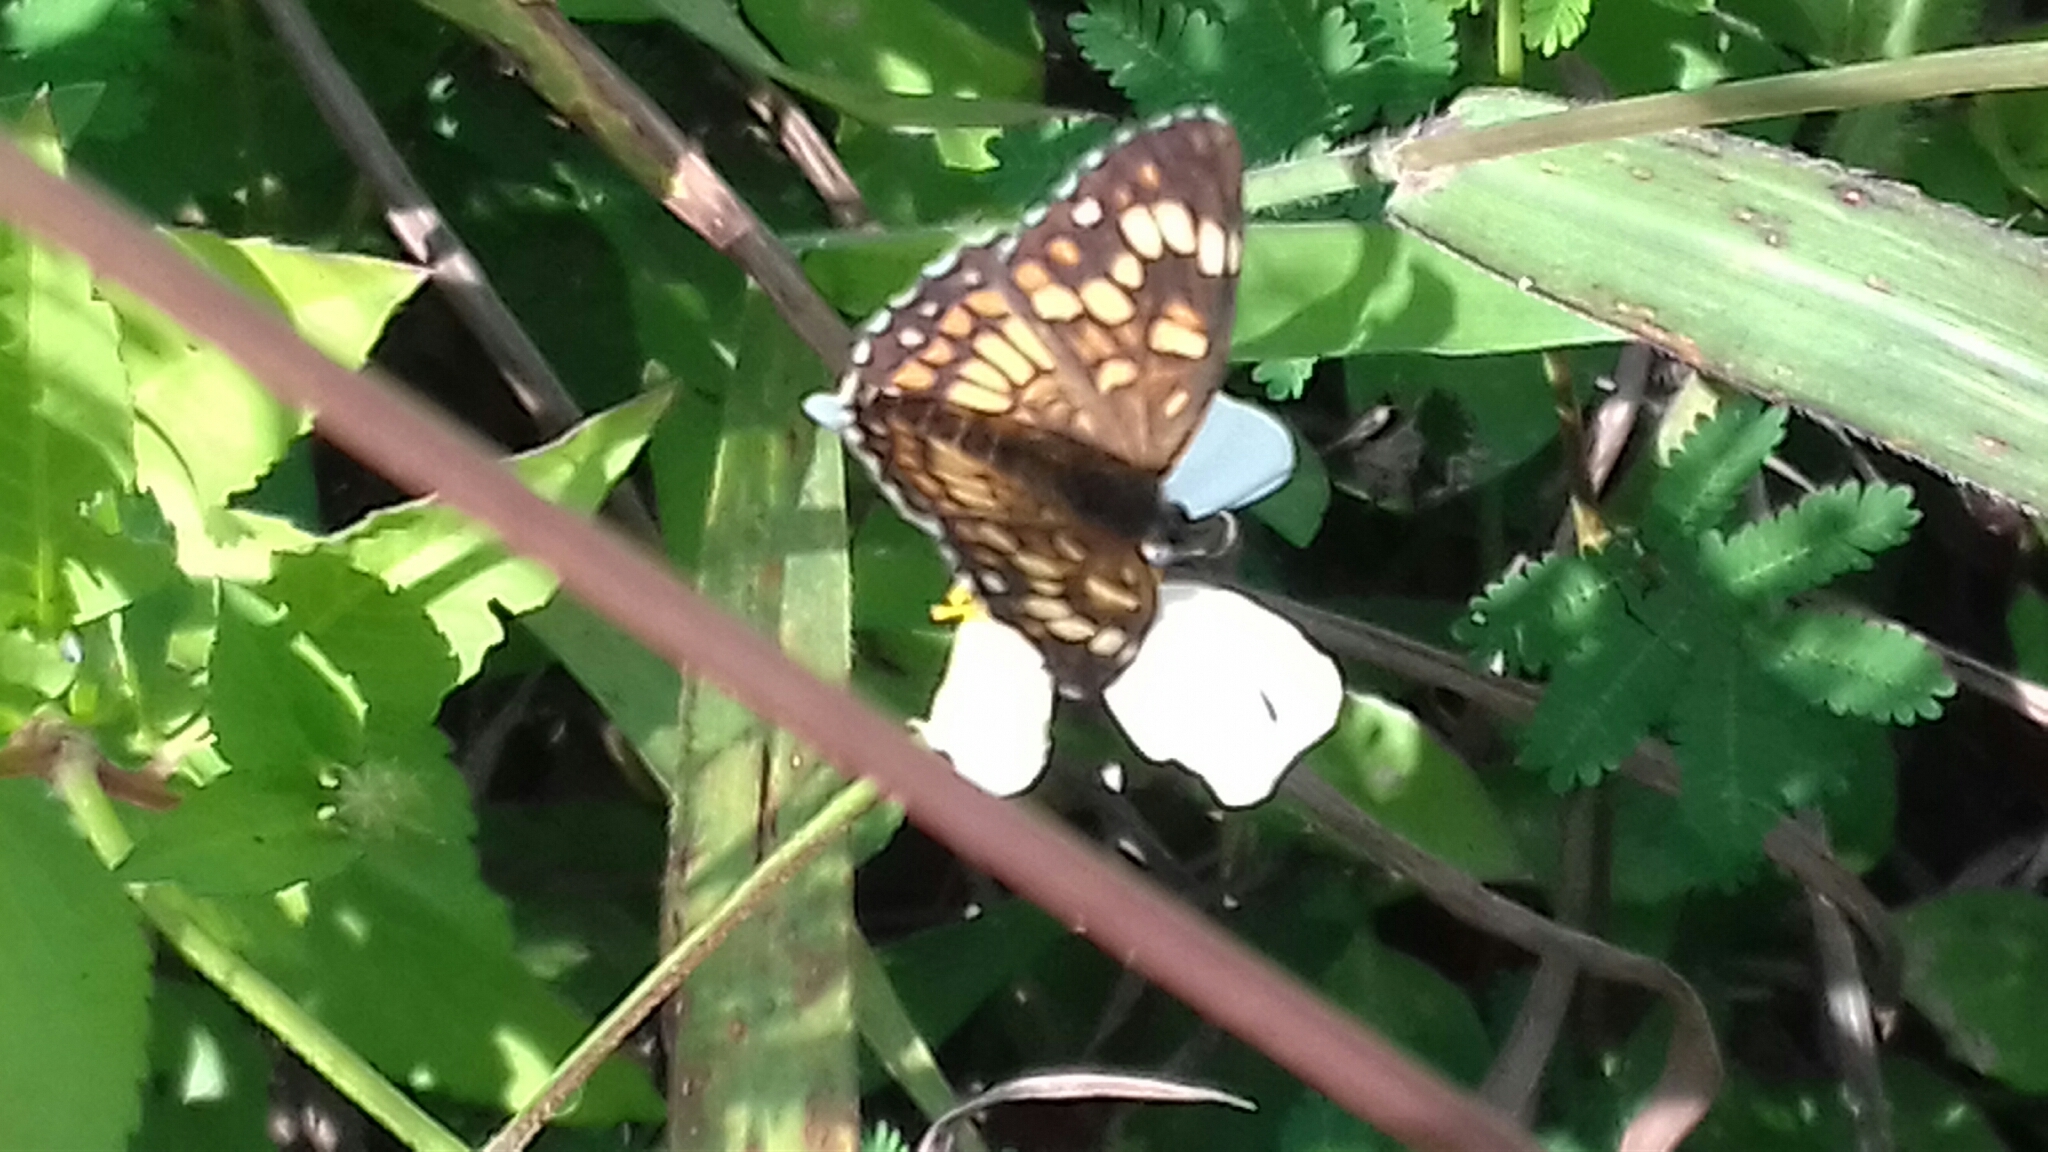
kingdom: Animalia
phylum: Arthropoda
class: Insecta
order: Lepidoptera
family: Nymphalidae
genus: Thessalia
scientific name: Thessalia theona
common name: Nymphalid moth
